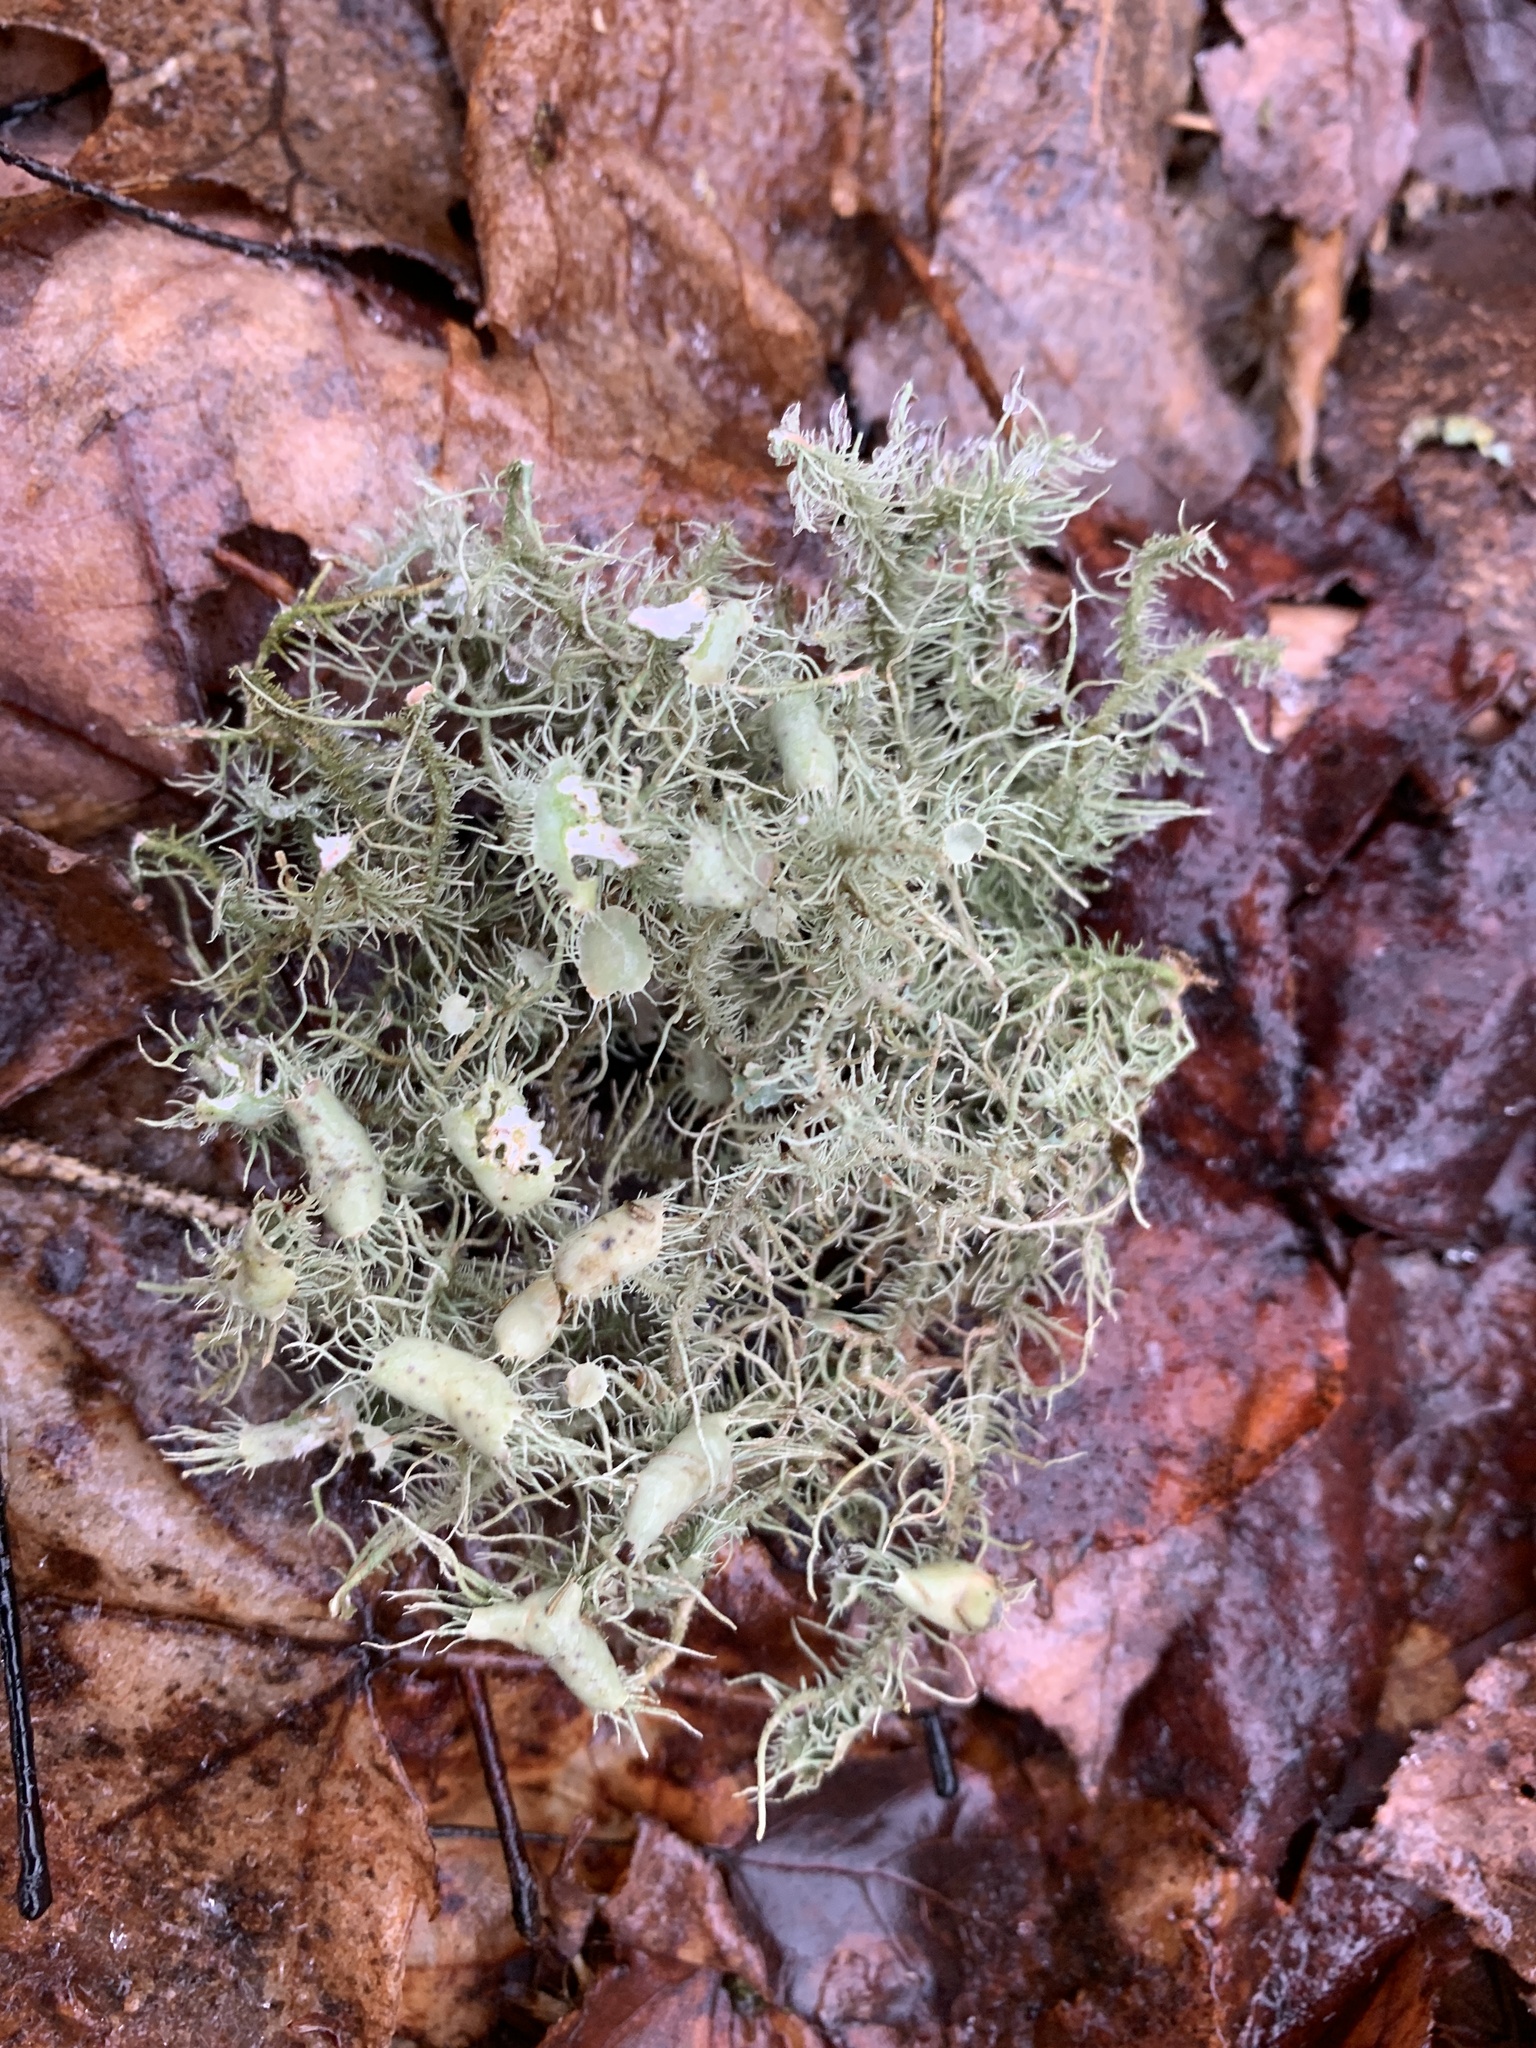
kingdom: Fungi
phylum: Ascomycota
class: Lecanoromycetes
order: Lecanorales
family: Parmeliaceae
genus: Usnea
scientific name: Usnea strigosa
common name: Bushy beard lichen
